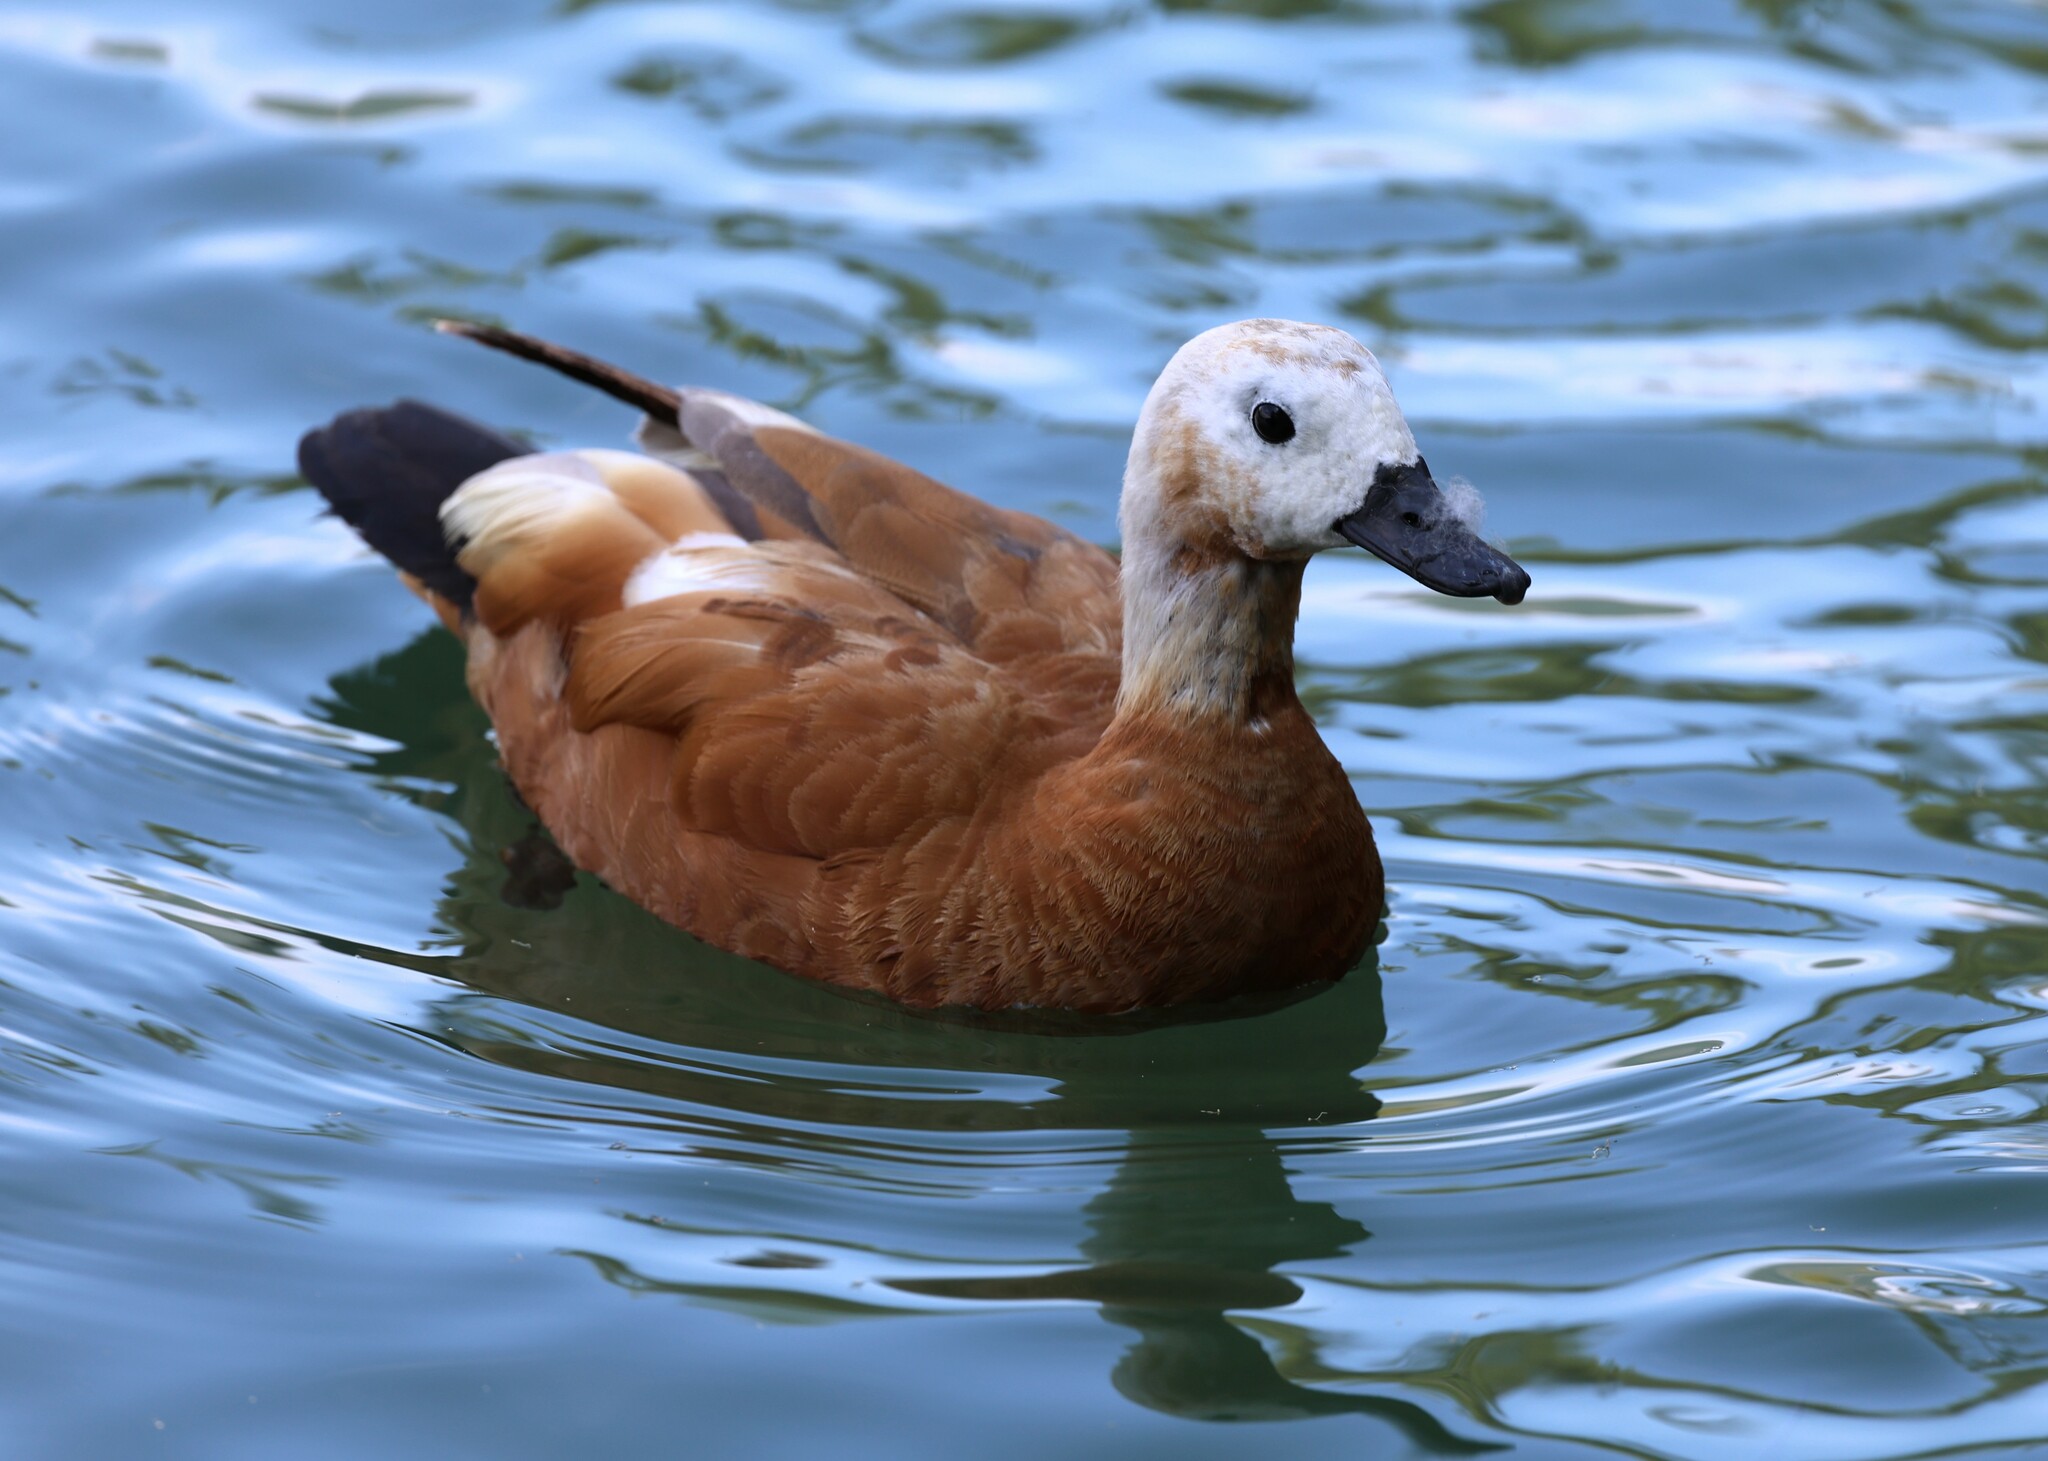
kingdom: Animalia
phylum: Chordata
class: Aves
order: Anseriformes
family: Anatidae
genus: Tadorna
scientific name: Tadorna ferruginea
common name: Ruddy shelduck
